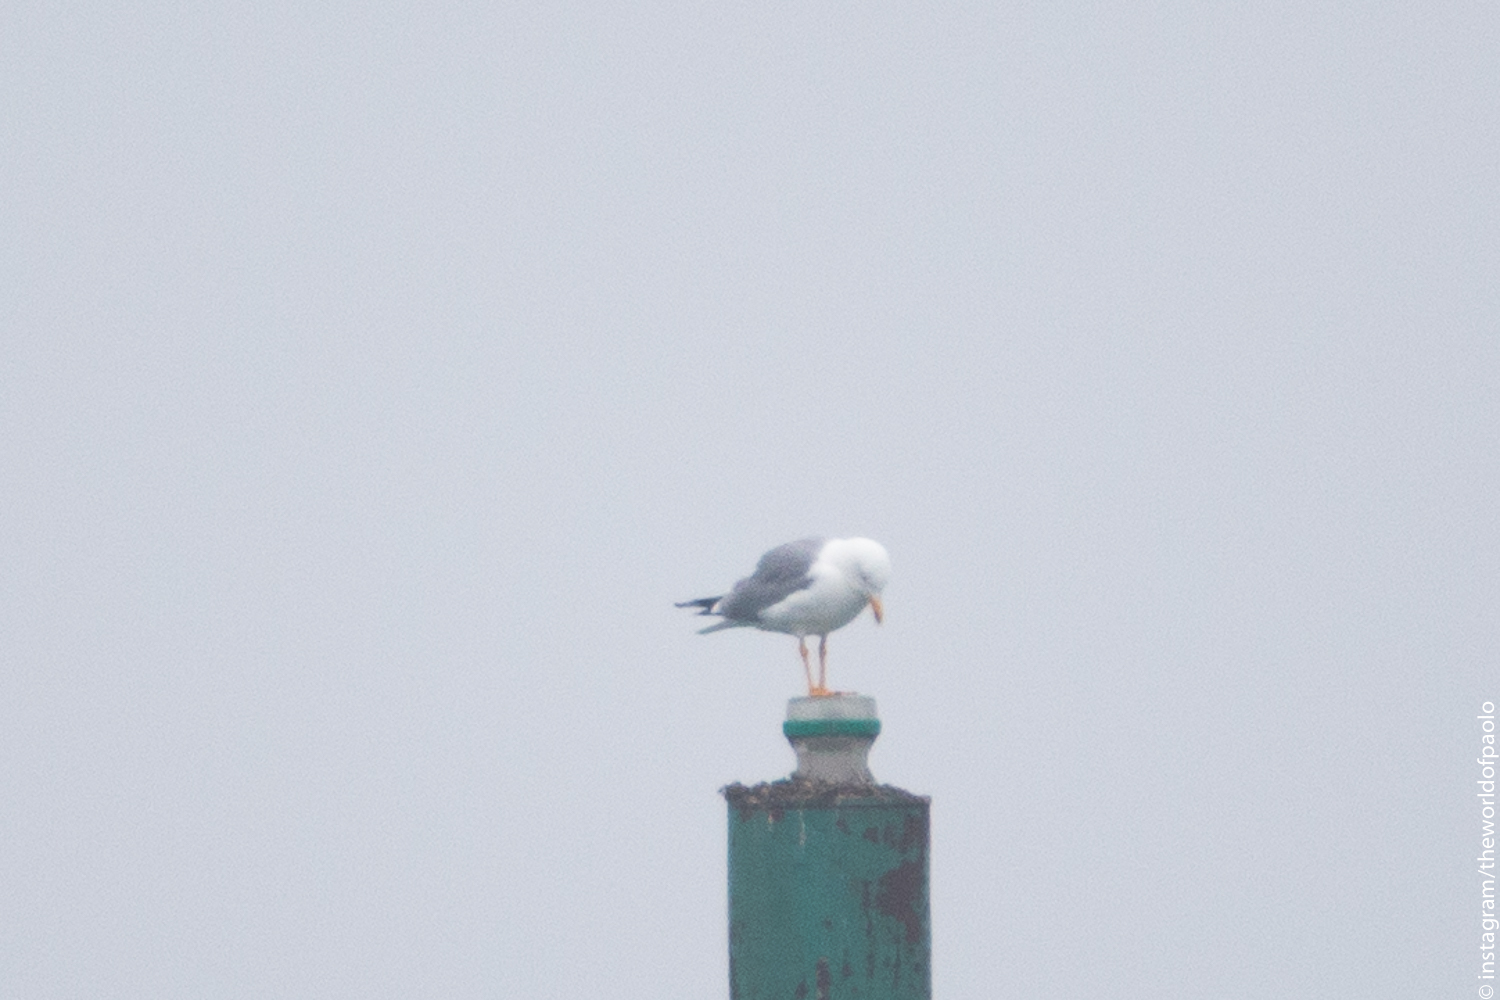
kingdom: Animalia
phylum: Chordata
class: Aves
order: Charadriiformes
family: Laridae
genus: Larus
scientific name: Larus michahellis
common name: Yellow-legged gull
